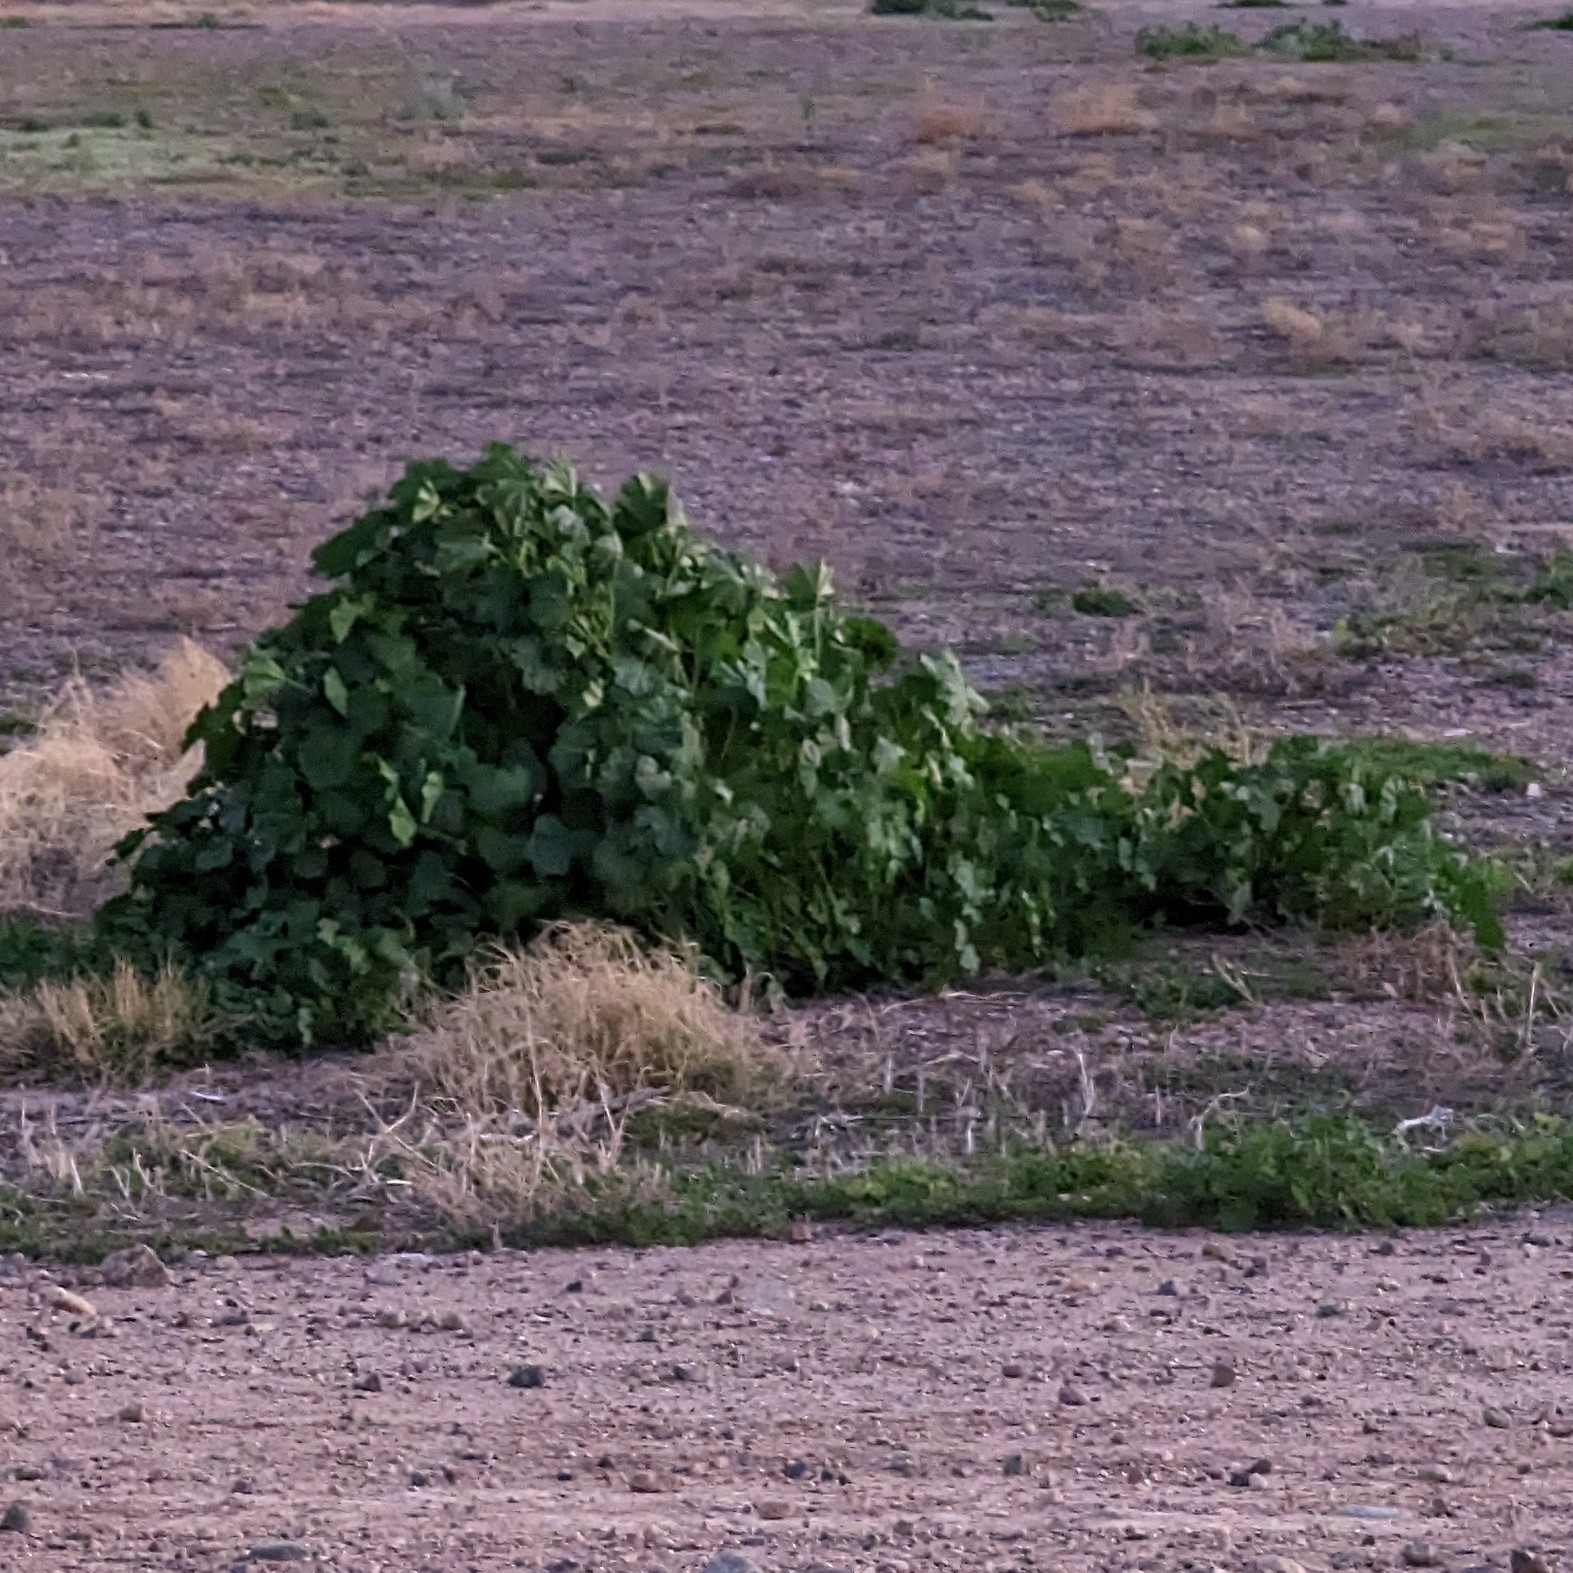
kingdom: Plantae
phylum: Tracheophyta
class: Magnoliopsida
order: Malvales
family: Malvaceae
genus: Malva
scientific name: Malva parviflora
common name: Least mallow
